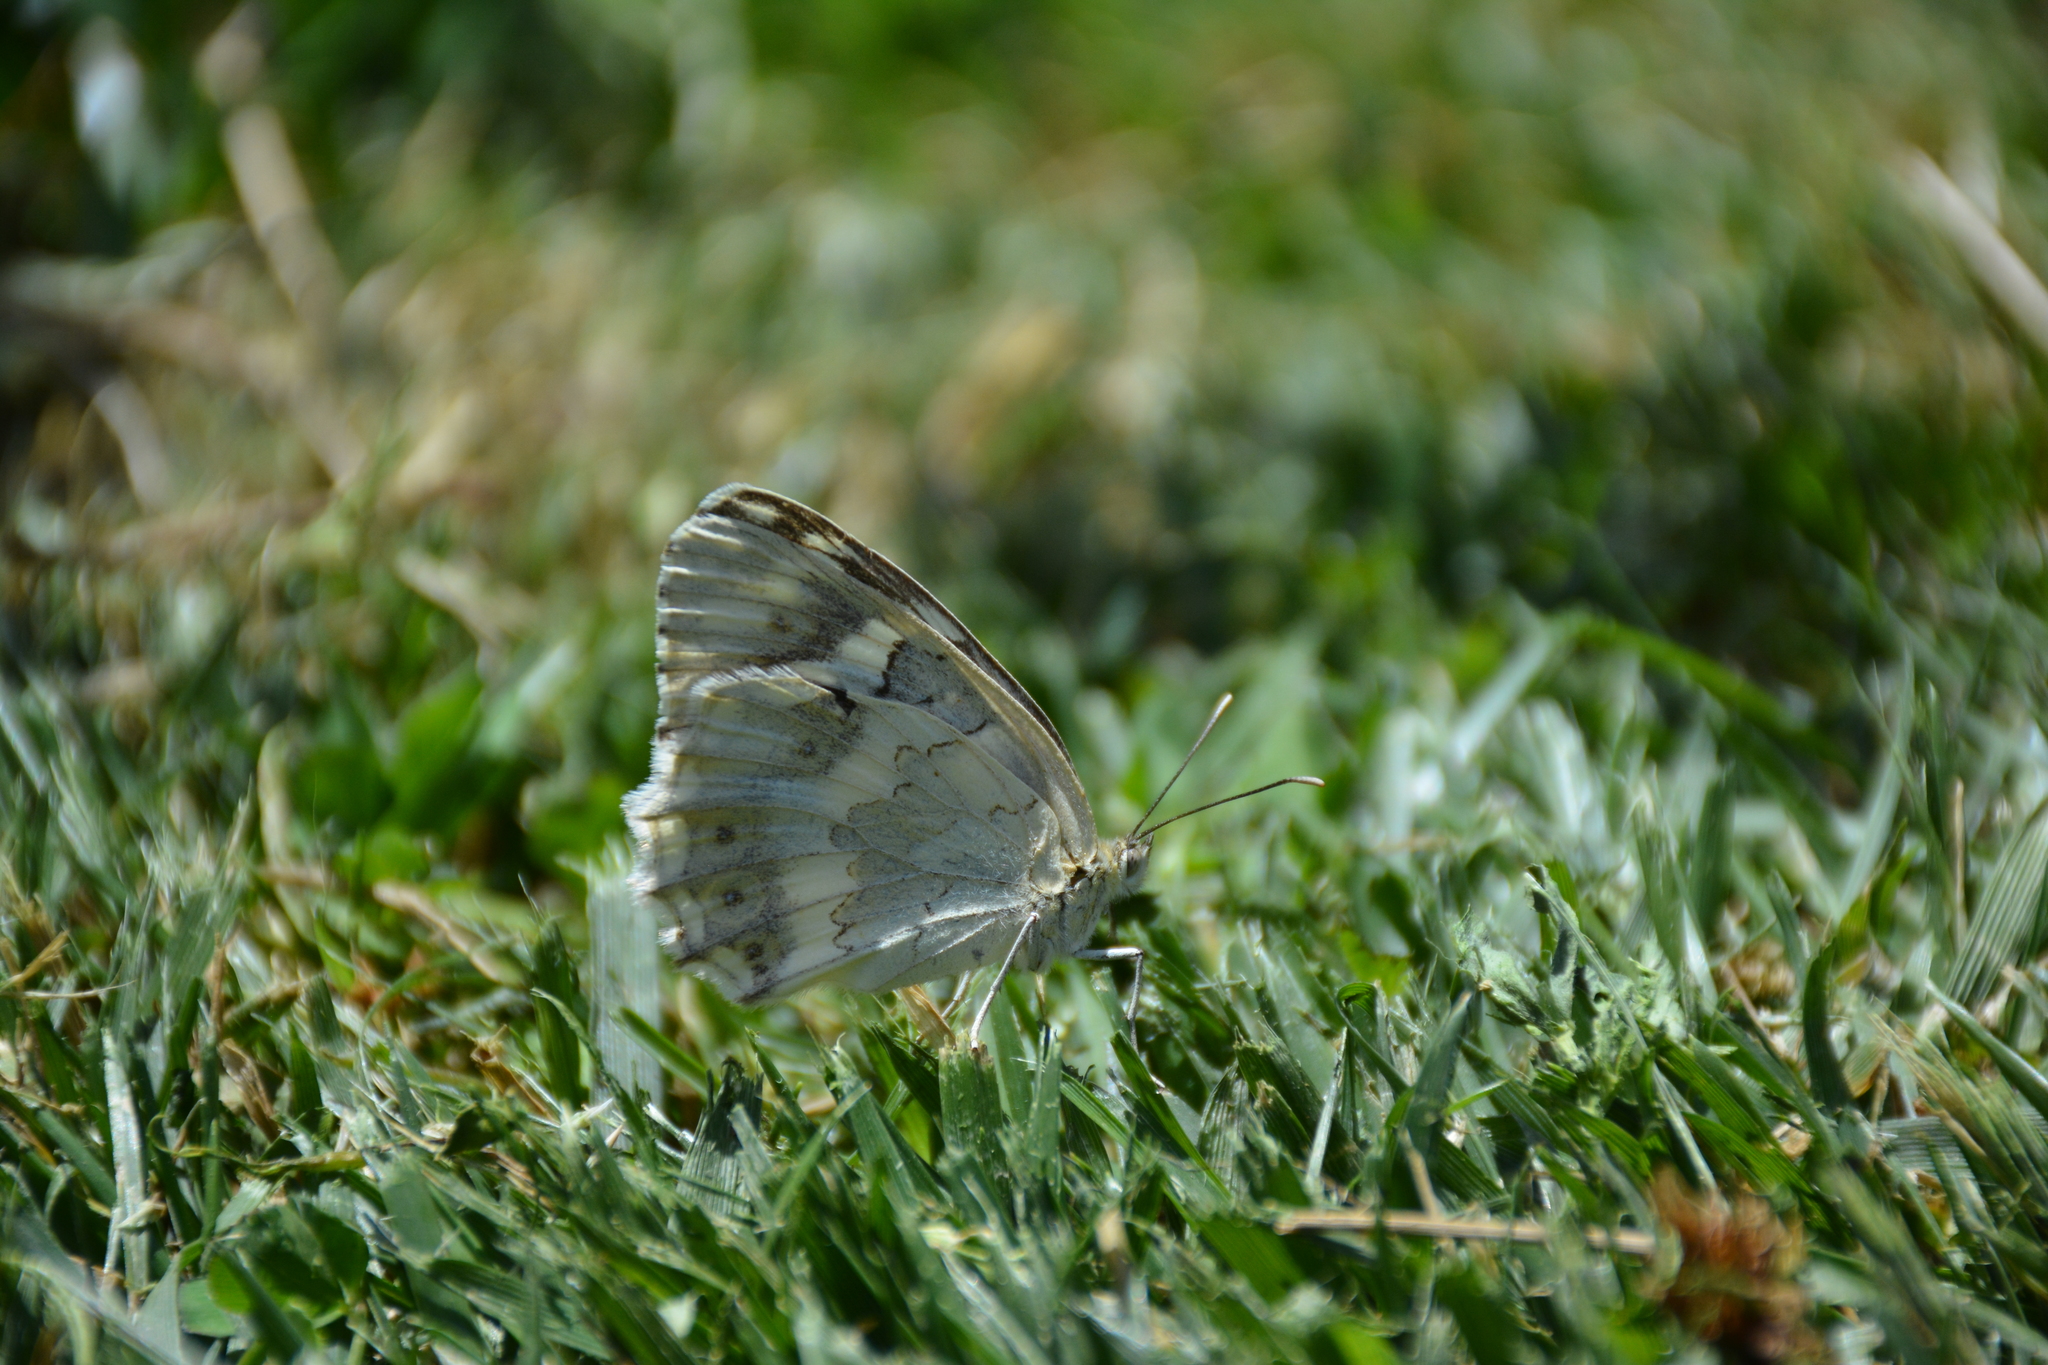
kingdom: Animalia
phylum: Arthropoda
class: Insecta
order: Lepidoptera
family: Nymphalidae
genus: Melanargia
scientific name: Melanargia larissa
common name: Balkan marbled white
